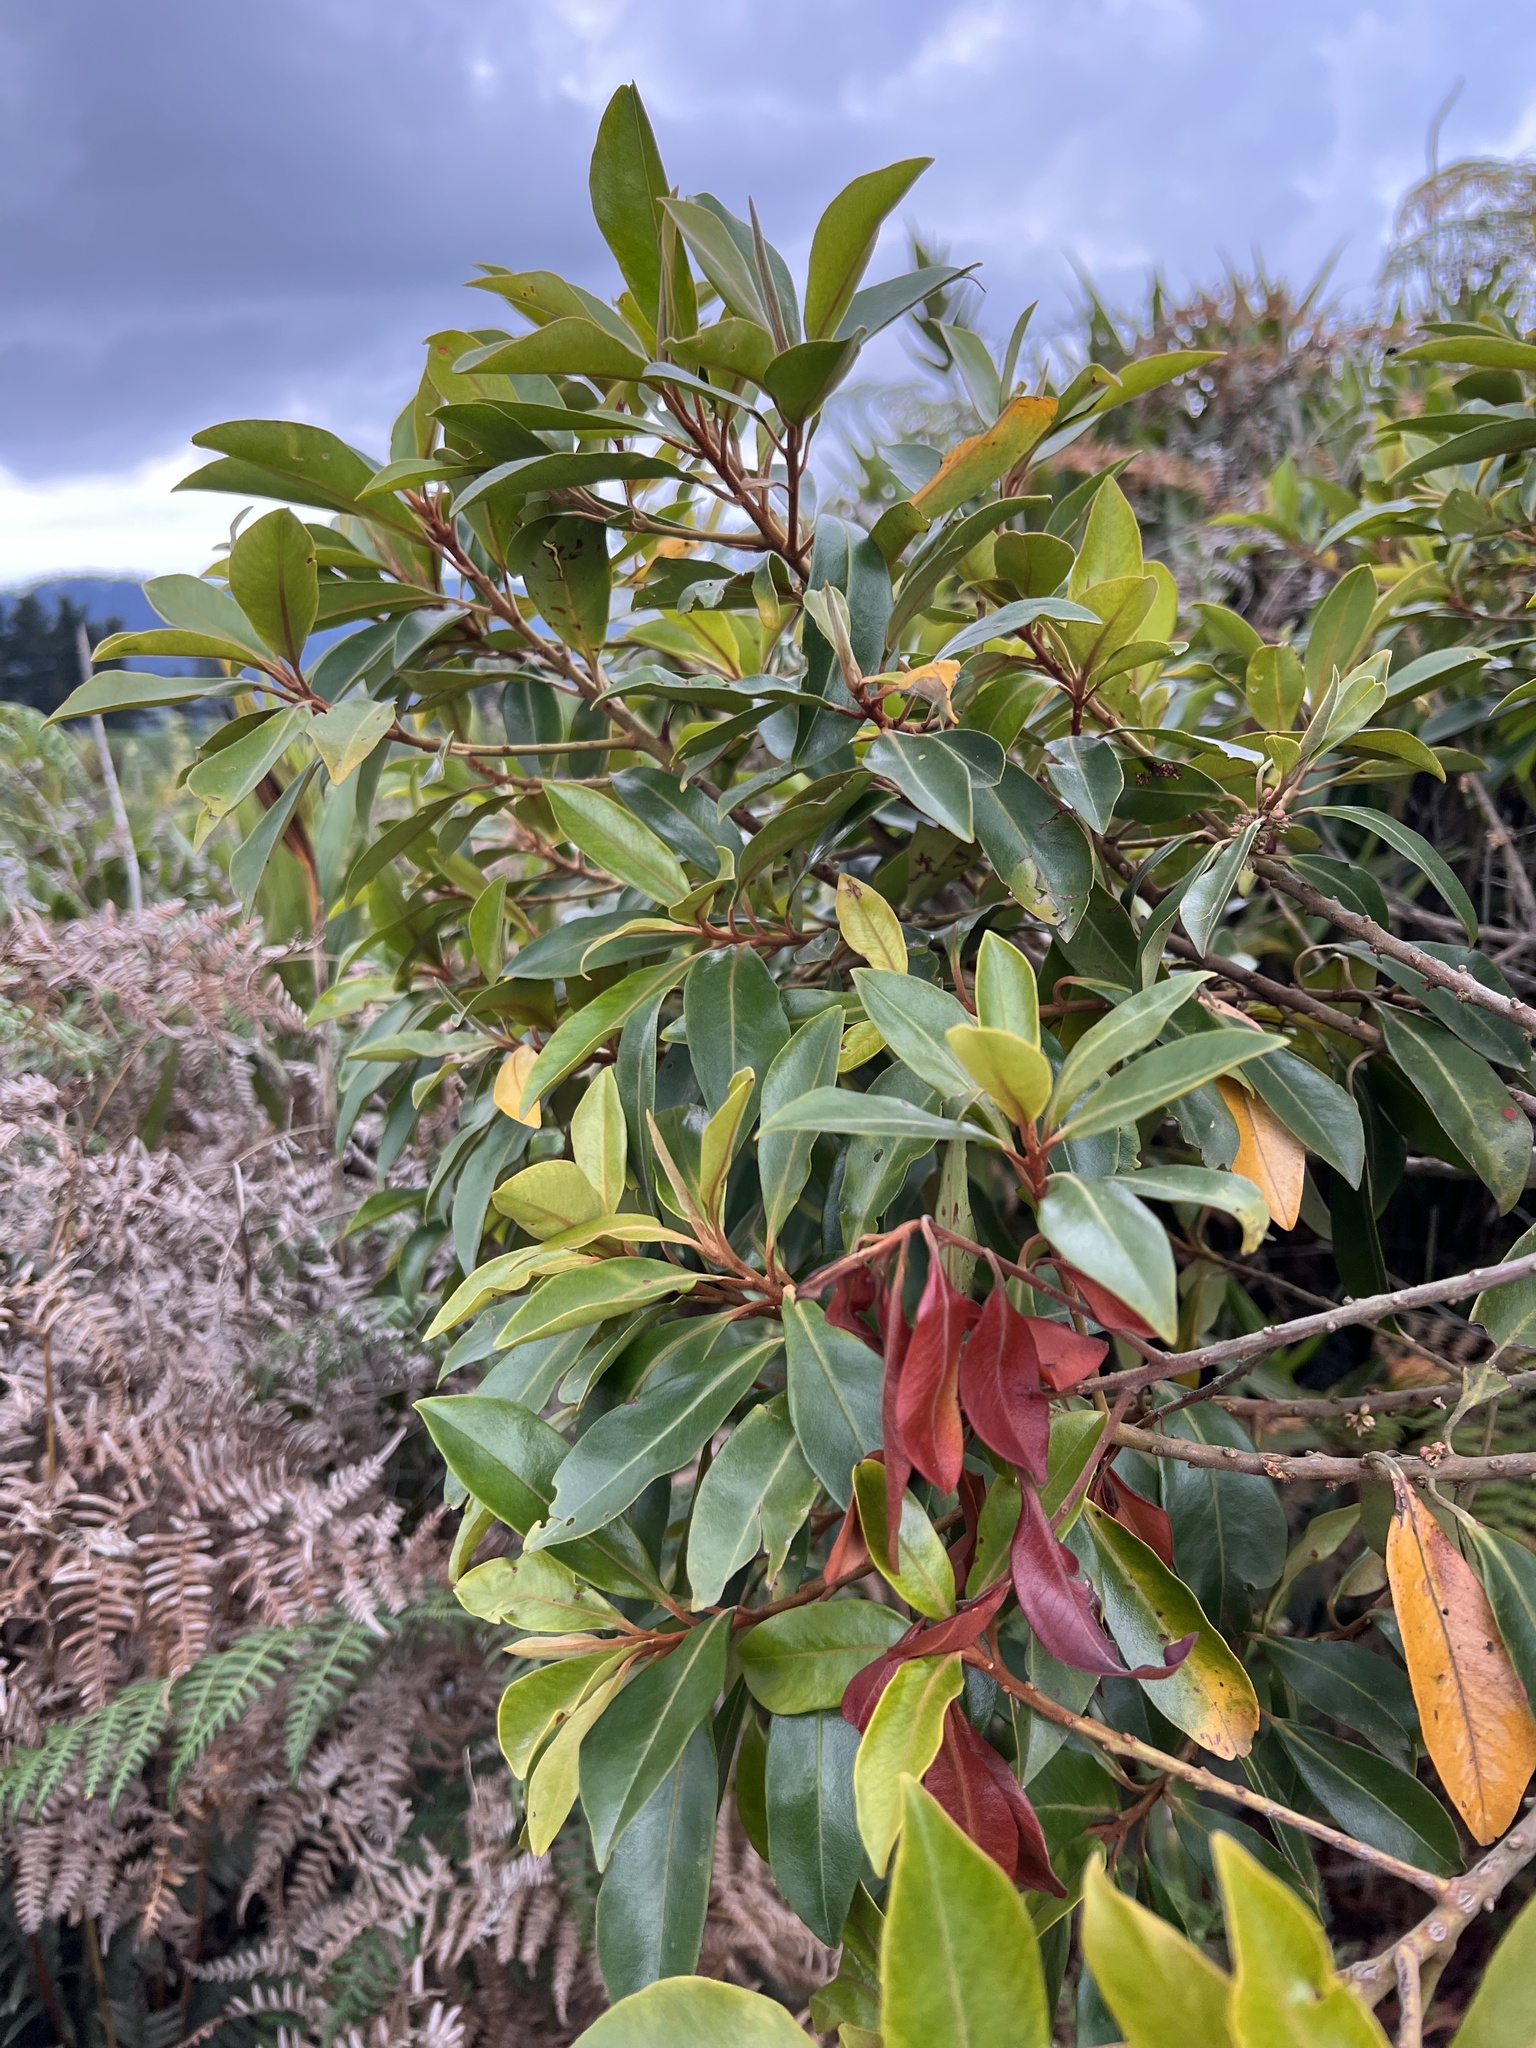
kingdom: Plantae
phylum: Tracheophyta
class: Magnoliopsida
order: Ericales
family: Primulaceae
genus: Myrsine
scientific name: Myrsine coriacea
